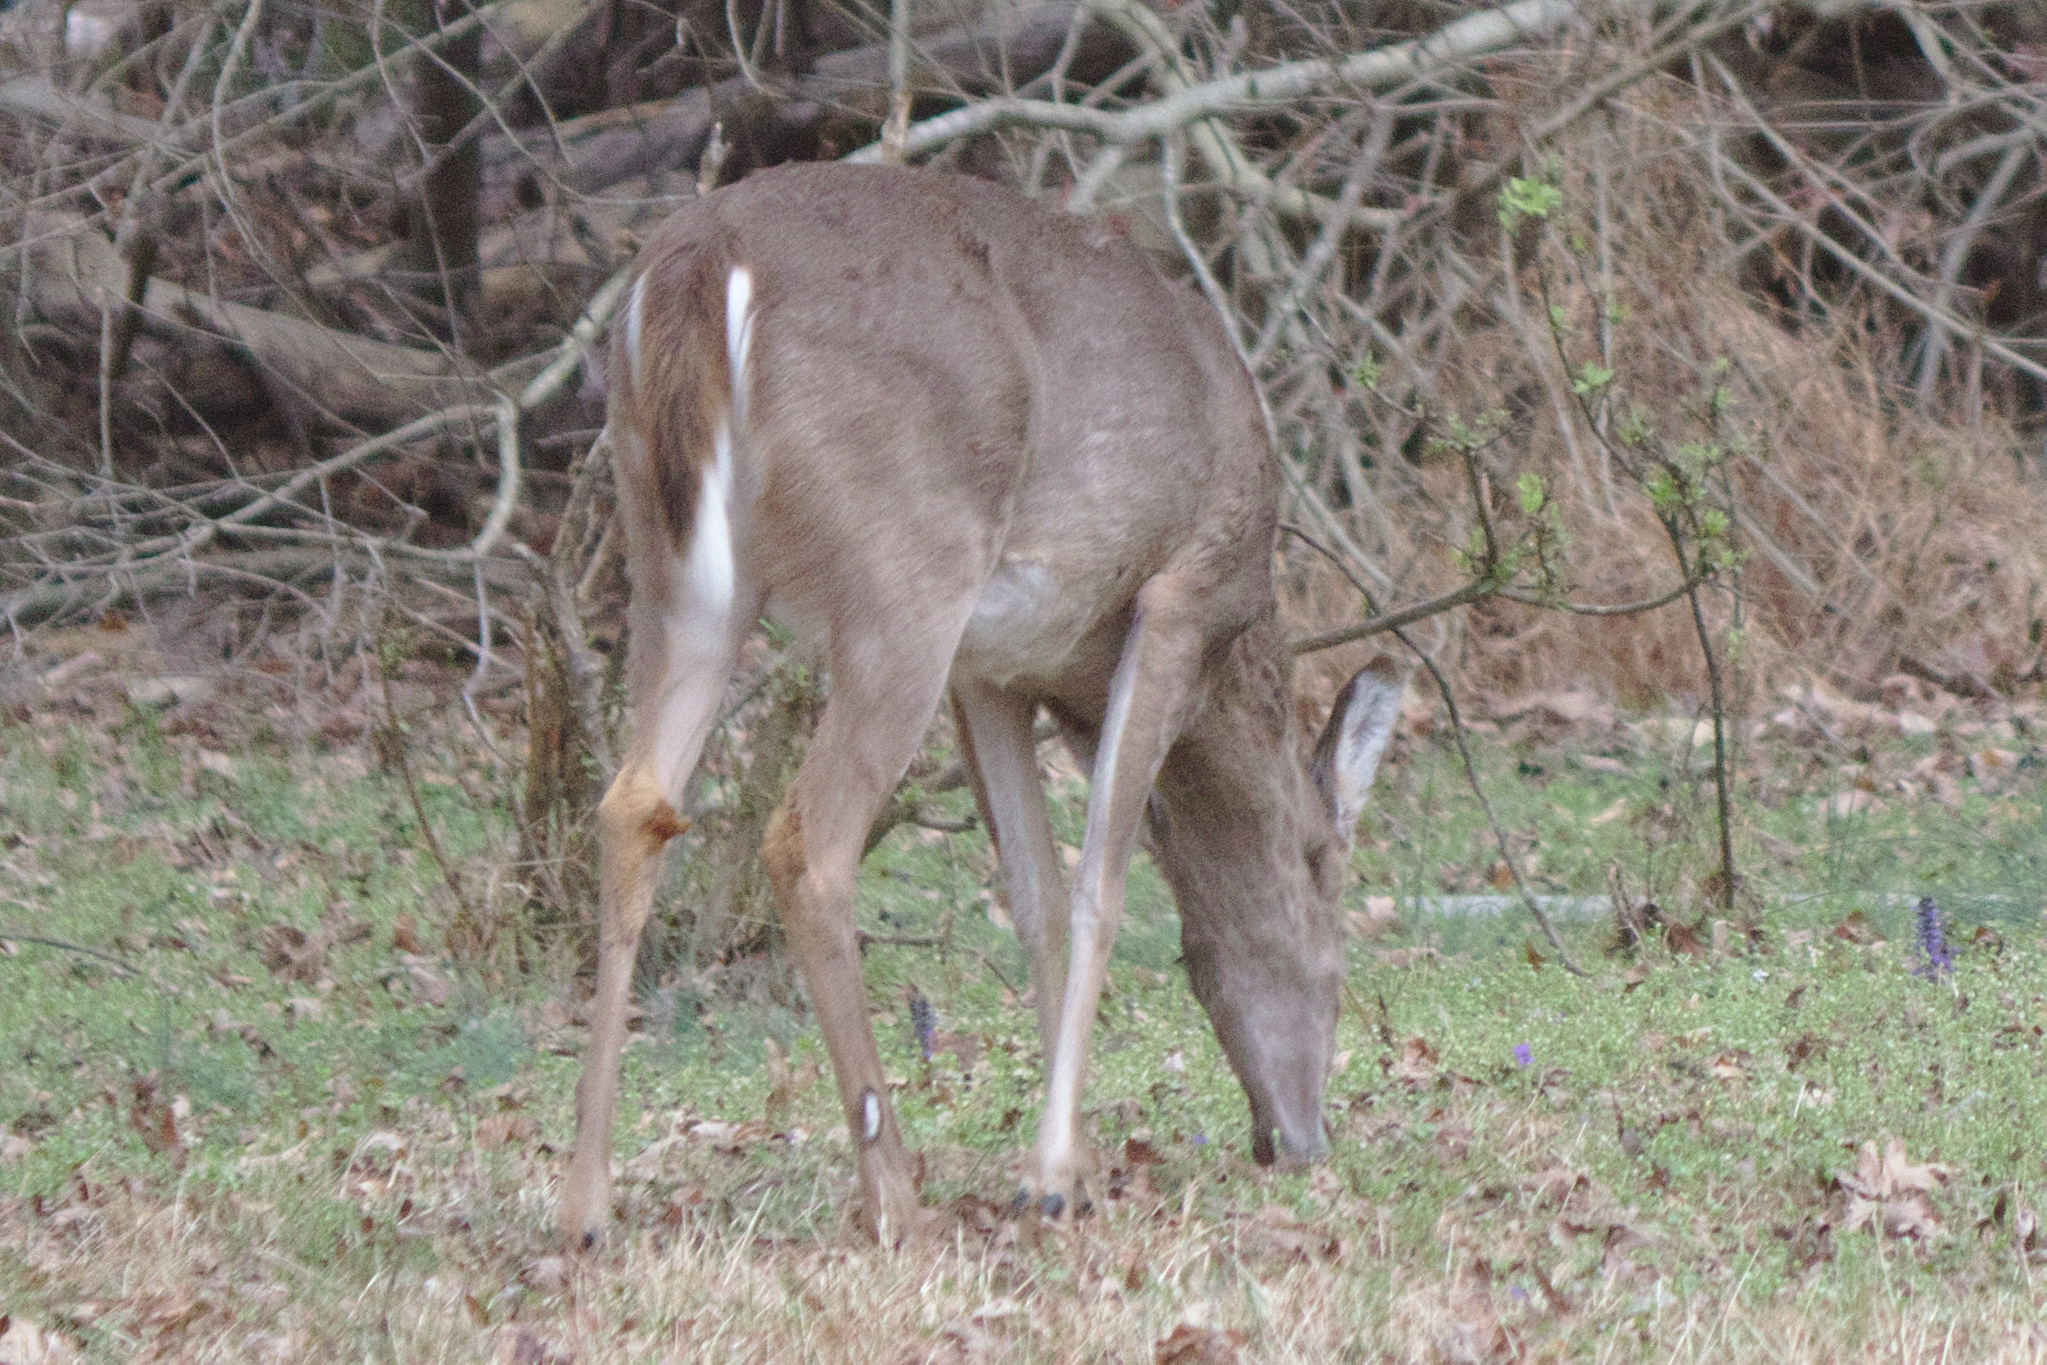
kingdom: Animalia
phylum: Chordata
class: Mammalia
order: Artiodactyla
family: Cervidae
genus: Odocoileus
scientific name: Odocoileus virginianus
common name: White-tailed deer
